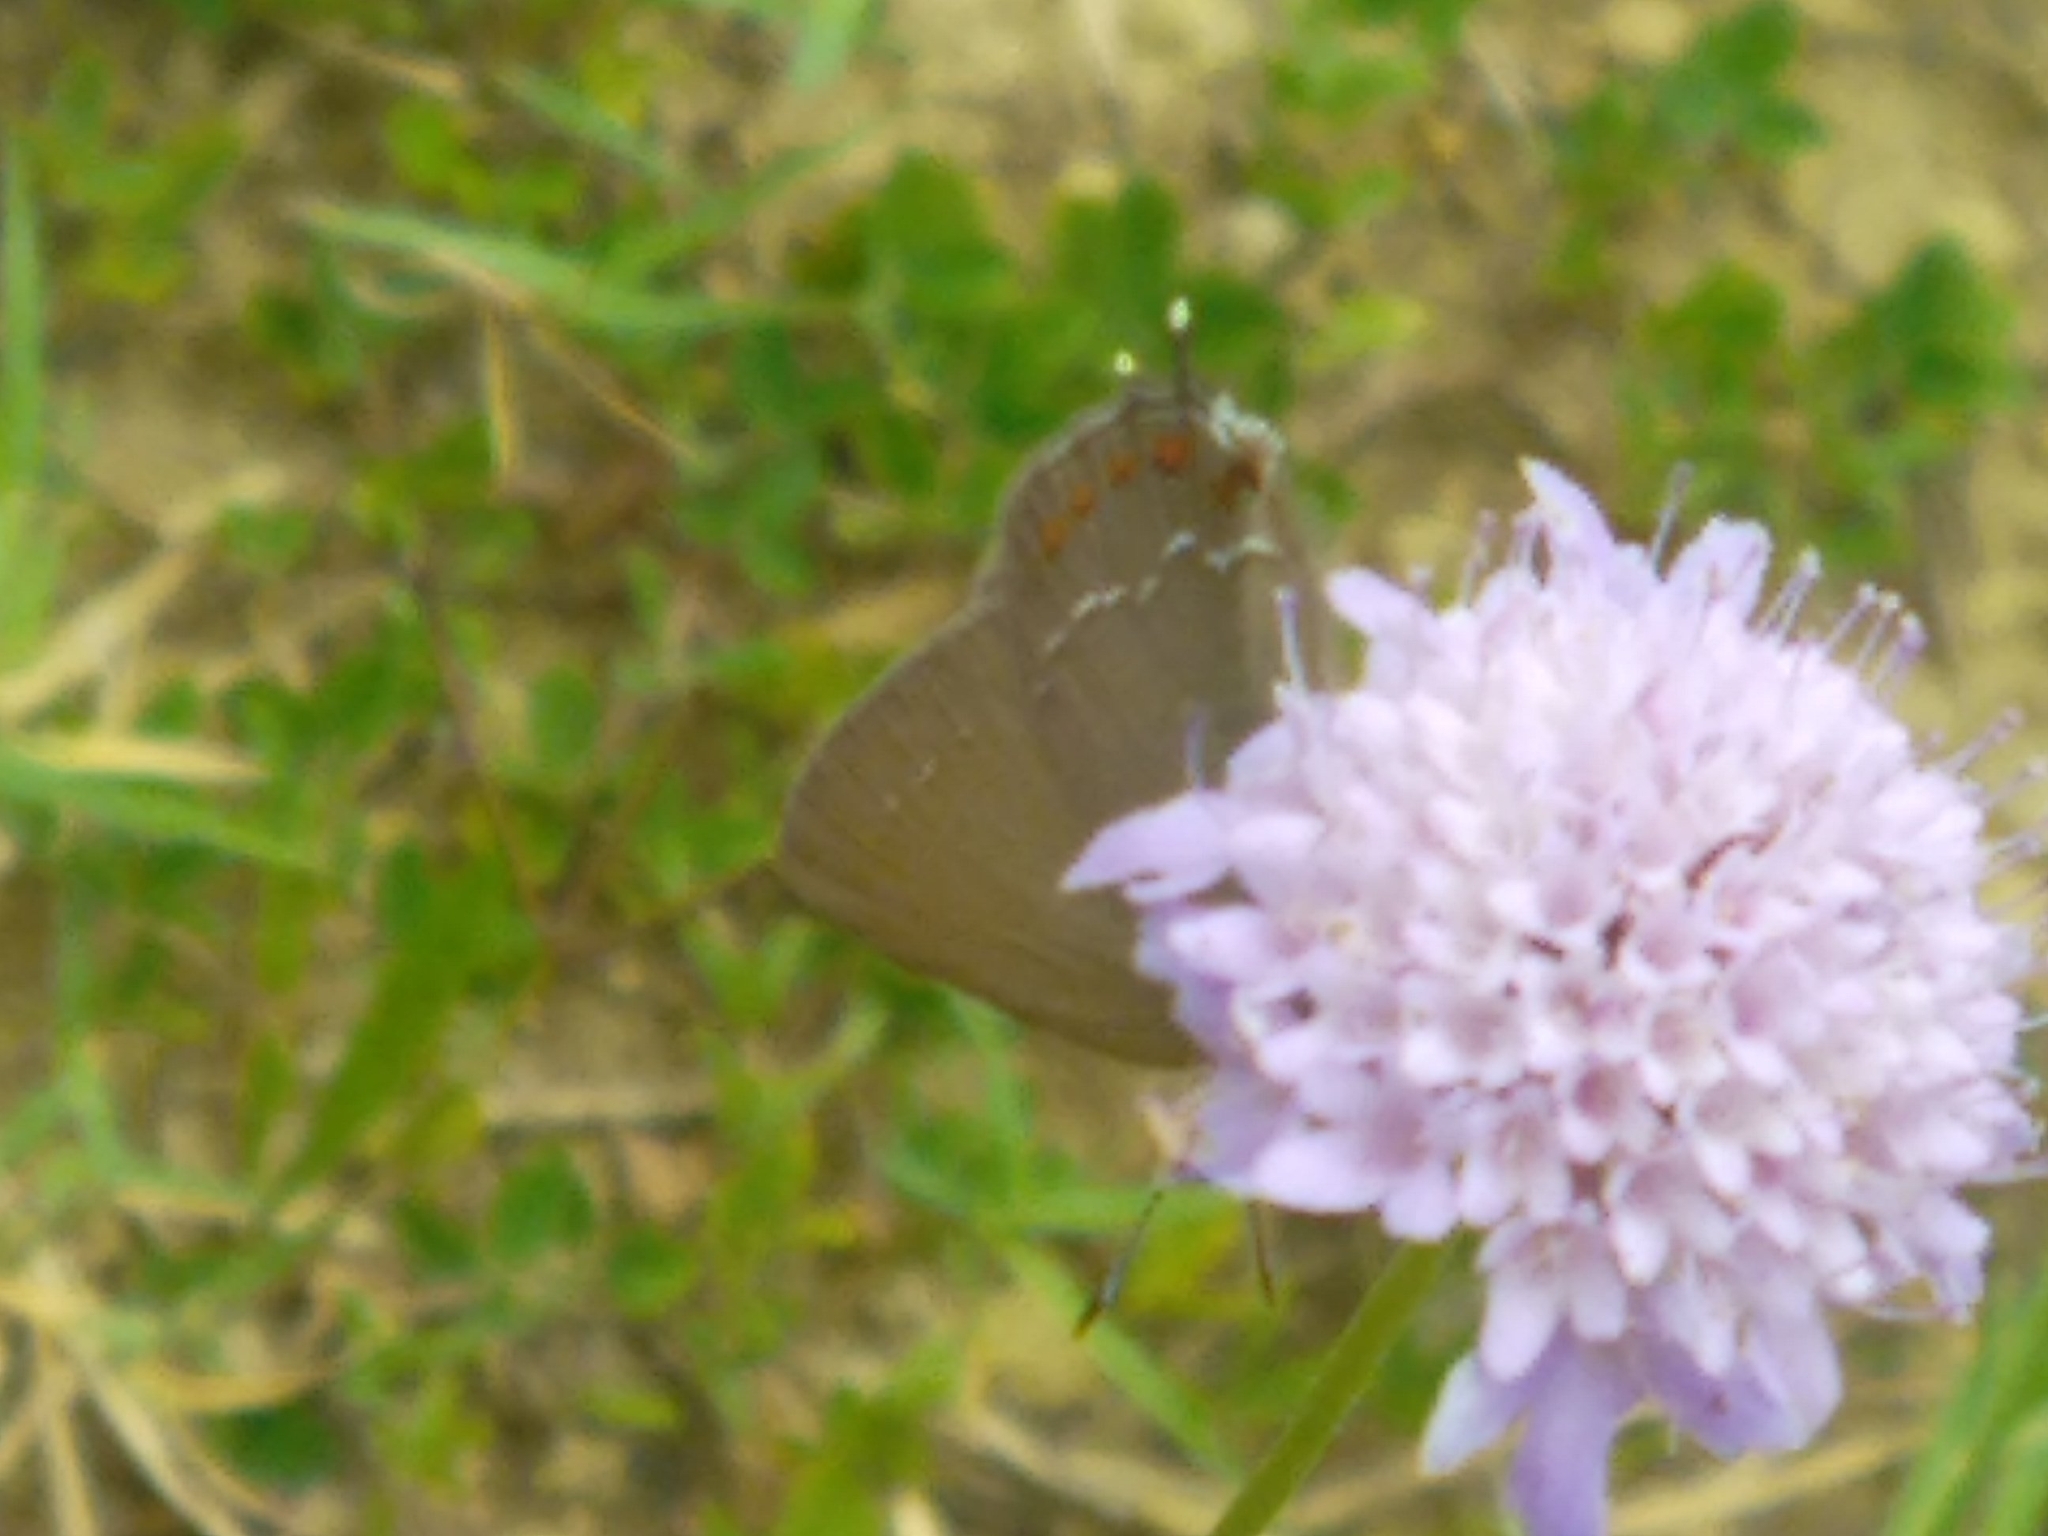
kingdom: Animalia
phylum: Arthropoda
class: Insecta
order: Lepidoptera
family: Lycaenidae
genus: Fixsenia
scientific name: Fixsenia esculi
